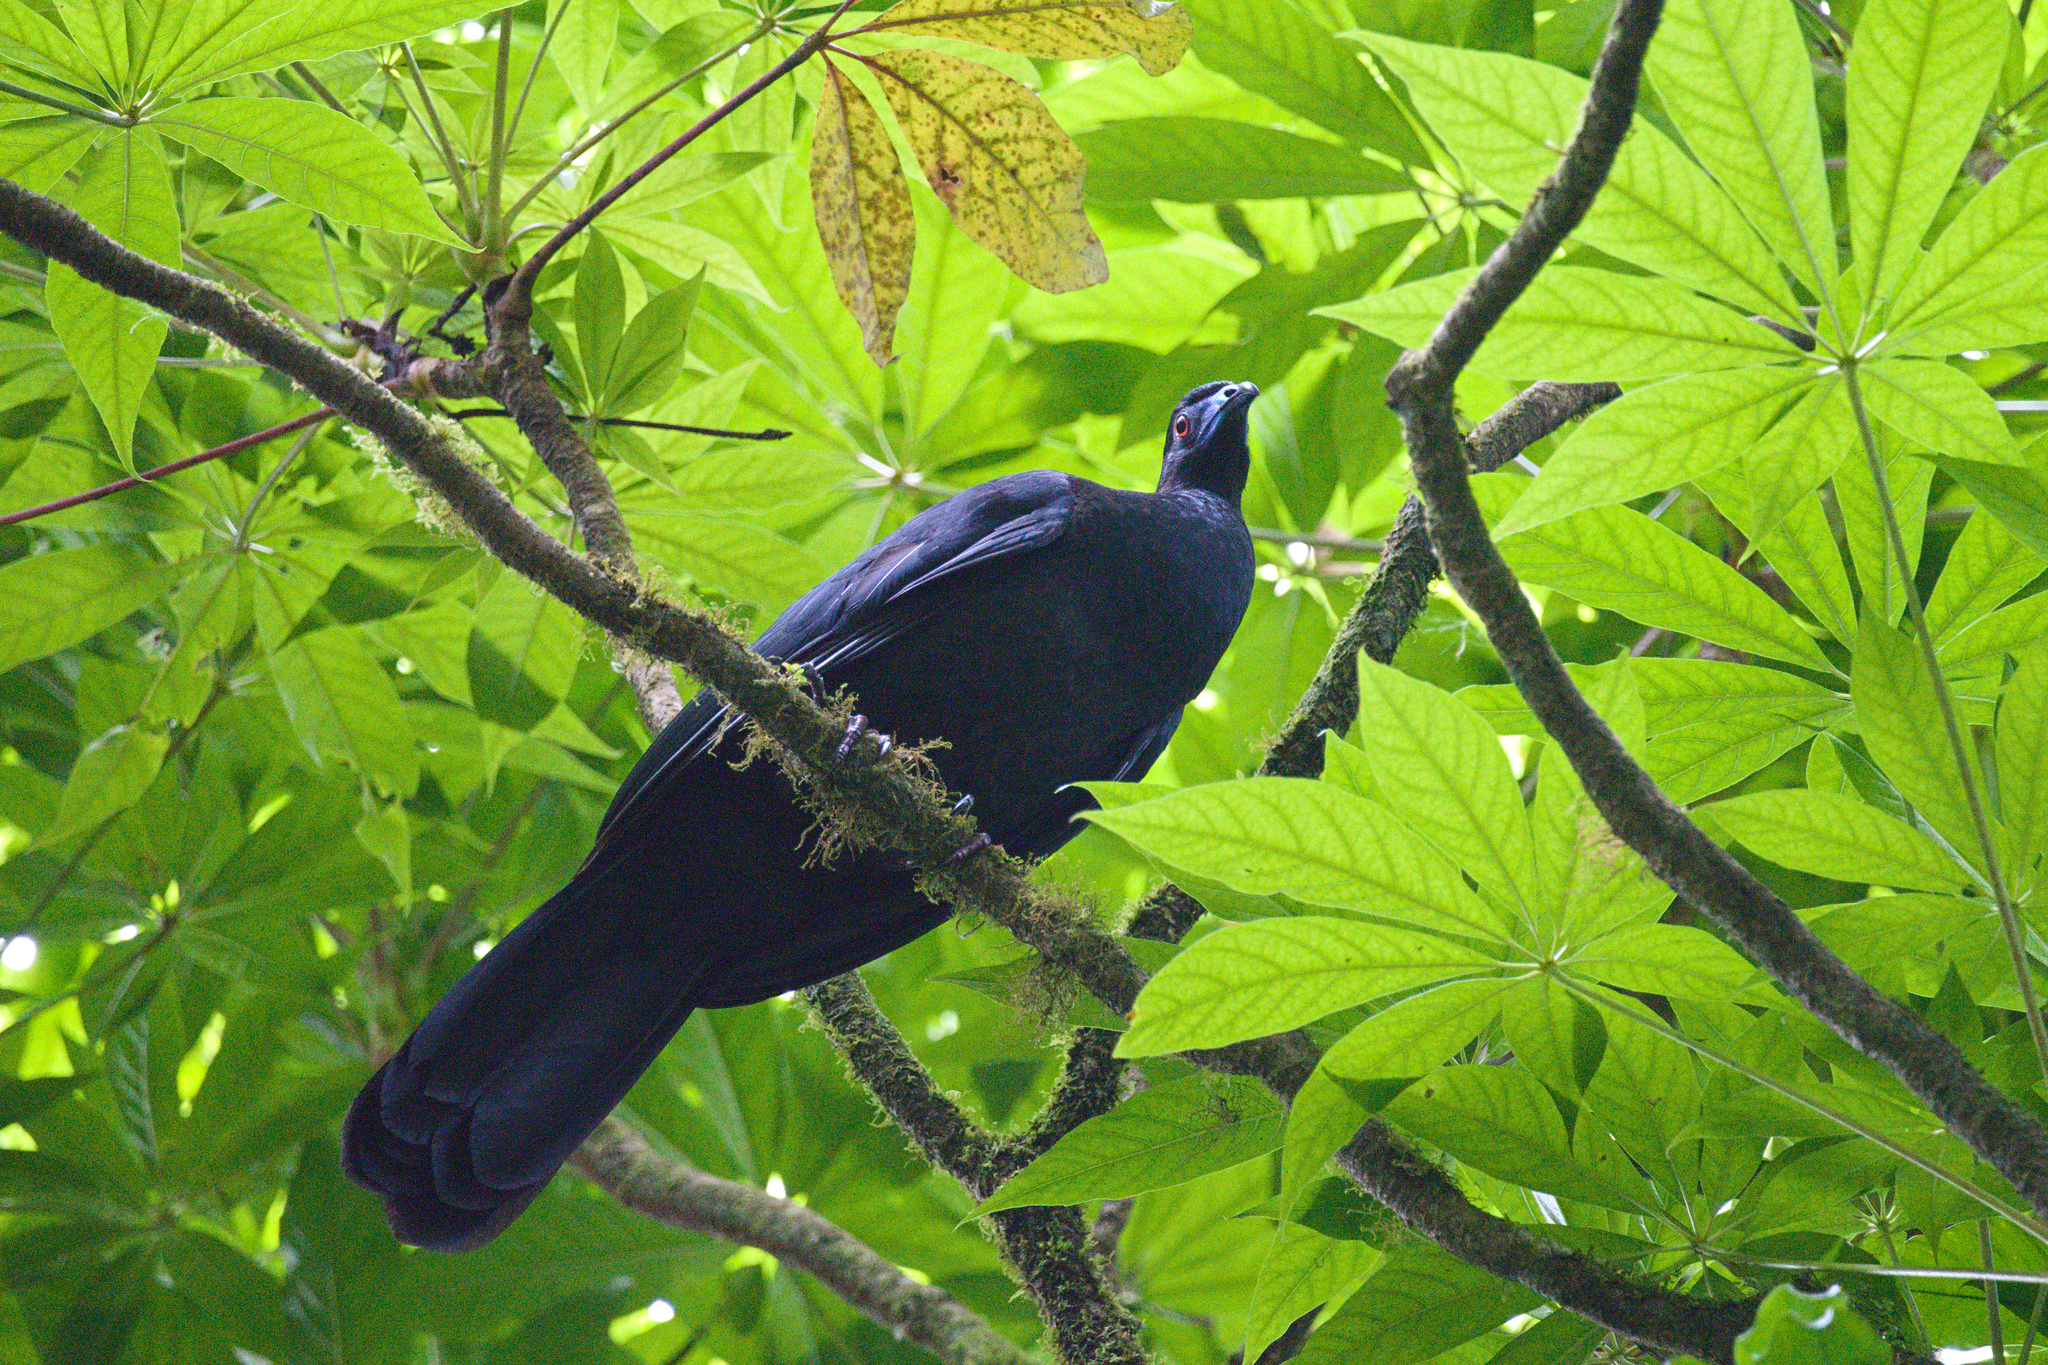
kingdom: Animalia
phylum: Chordata
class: Aves
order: Galliformes
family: Cracidae
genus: Chamaepetes
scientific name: Chamaepetes unicolor
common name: Black guan
